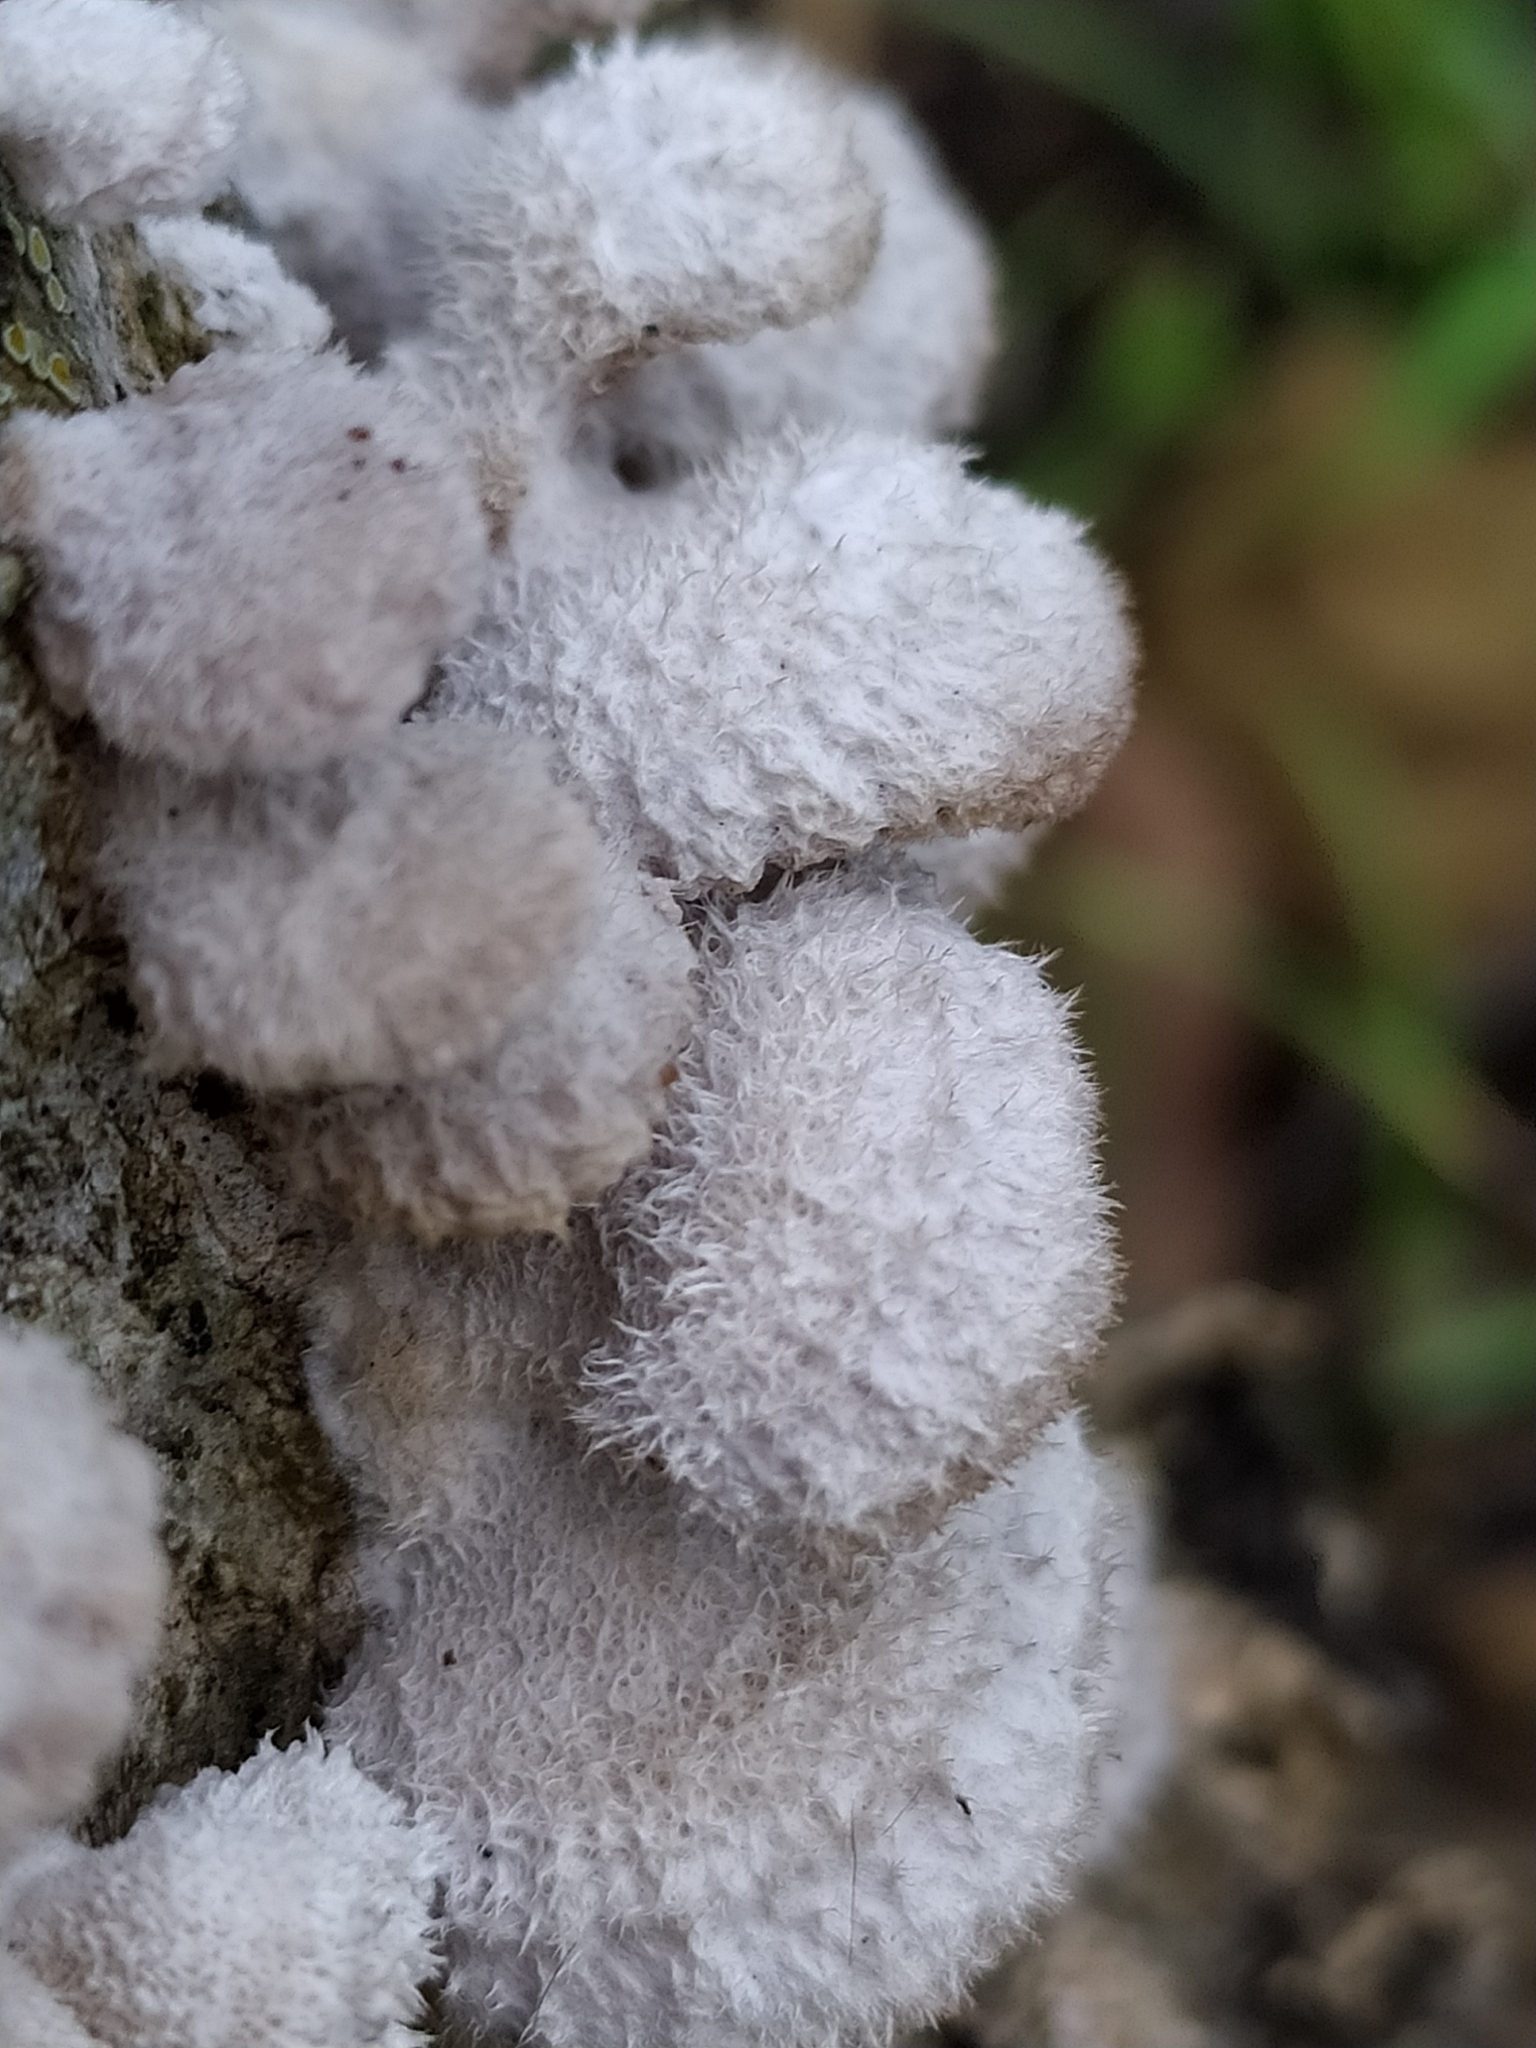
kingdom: Fungi
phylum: Basidiomycota
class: Agaricomycetes
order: Agaricales
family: Schizophyllaceae
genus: Schizophyllum
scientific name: Schizophyllum commune
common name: Common porecrust
